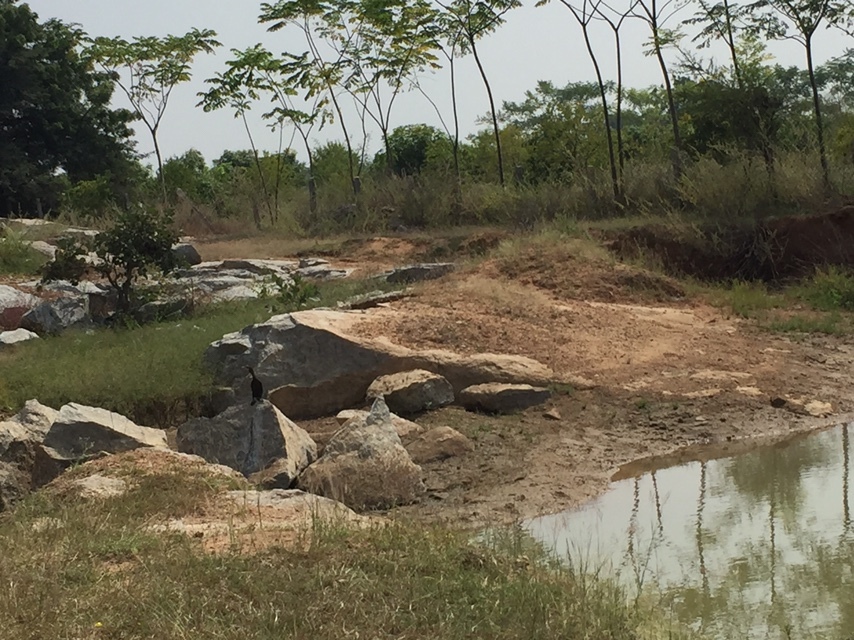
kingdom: Animalia
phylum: Chordata
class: Aves
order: Suliformes
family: Phalacrocoracidae
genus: Microcarbo
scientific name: Microcarbo niger
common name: Little cormorant
